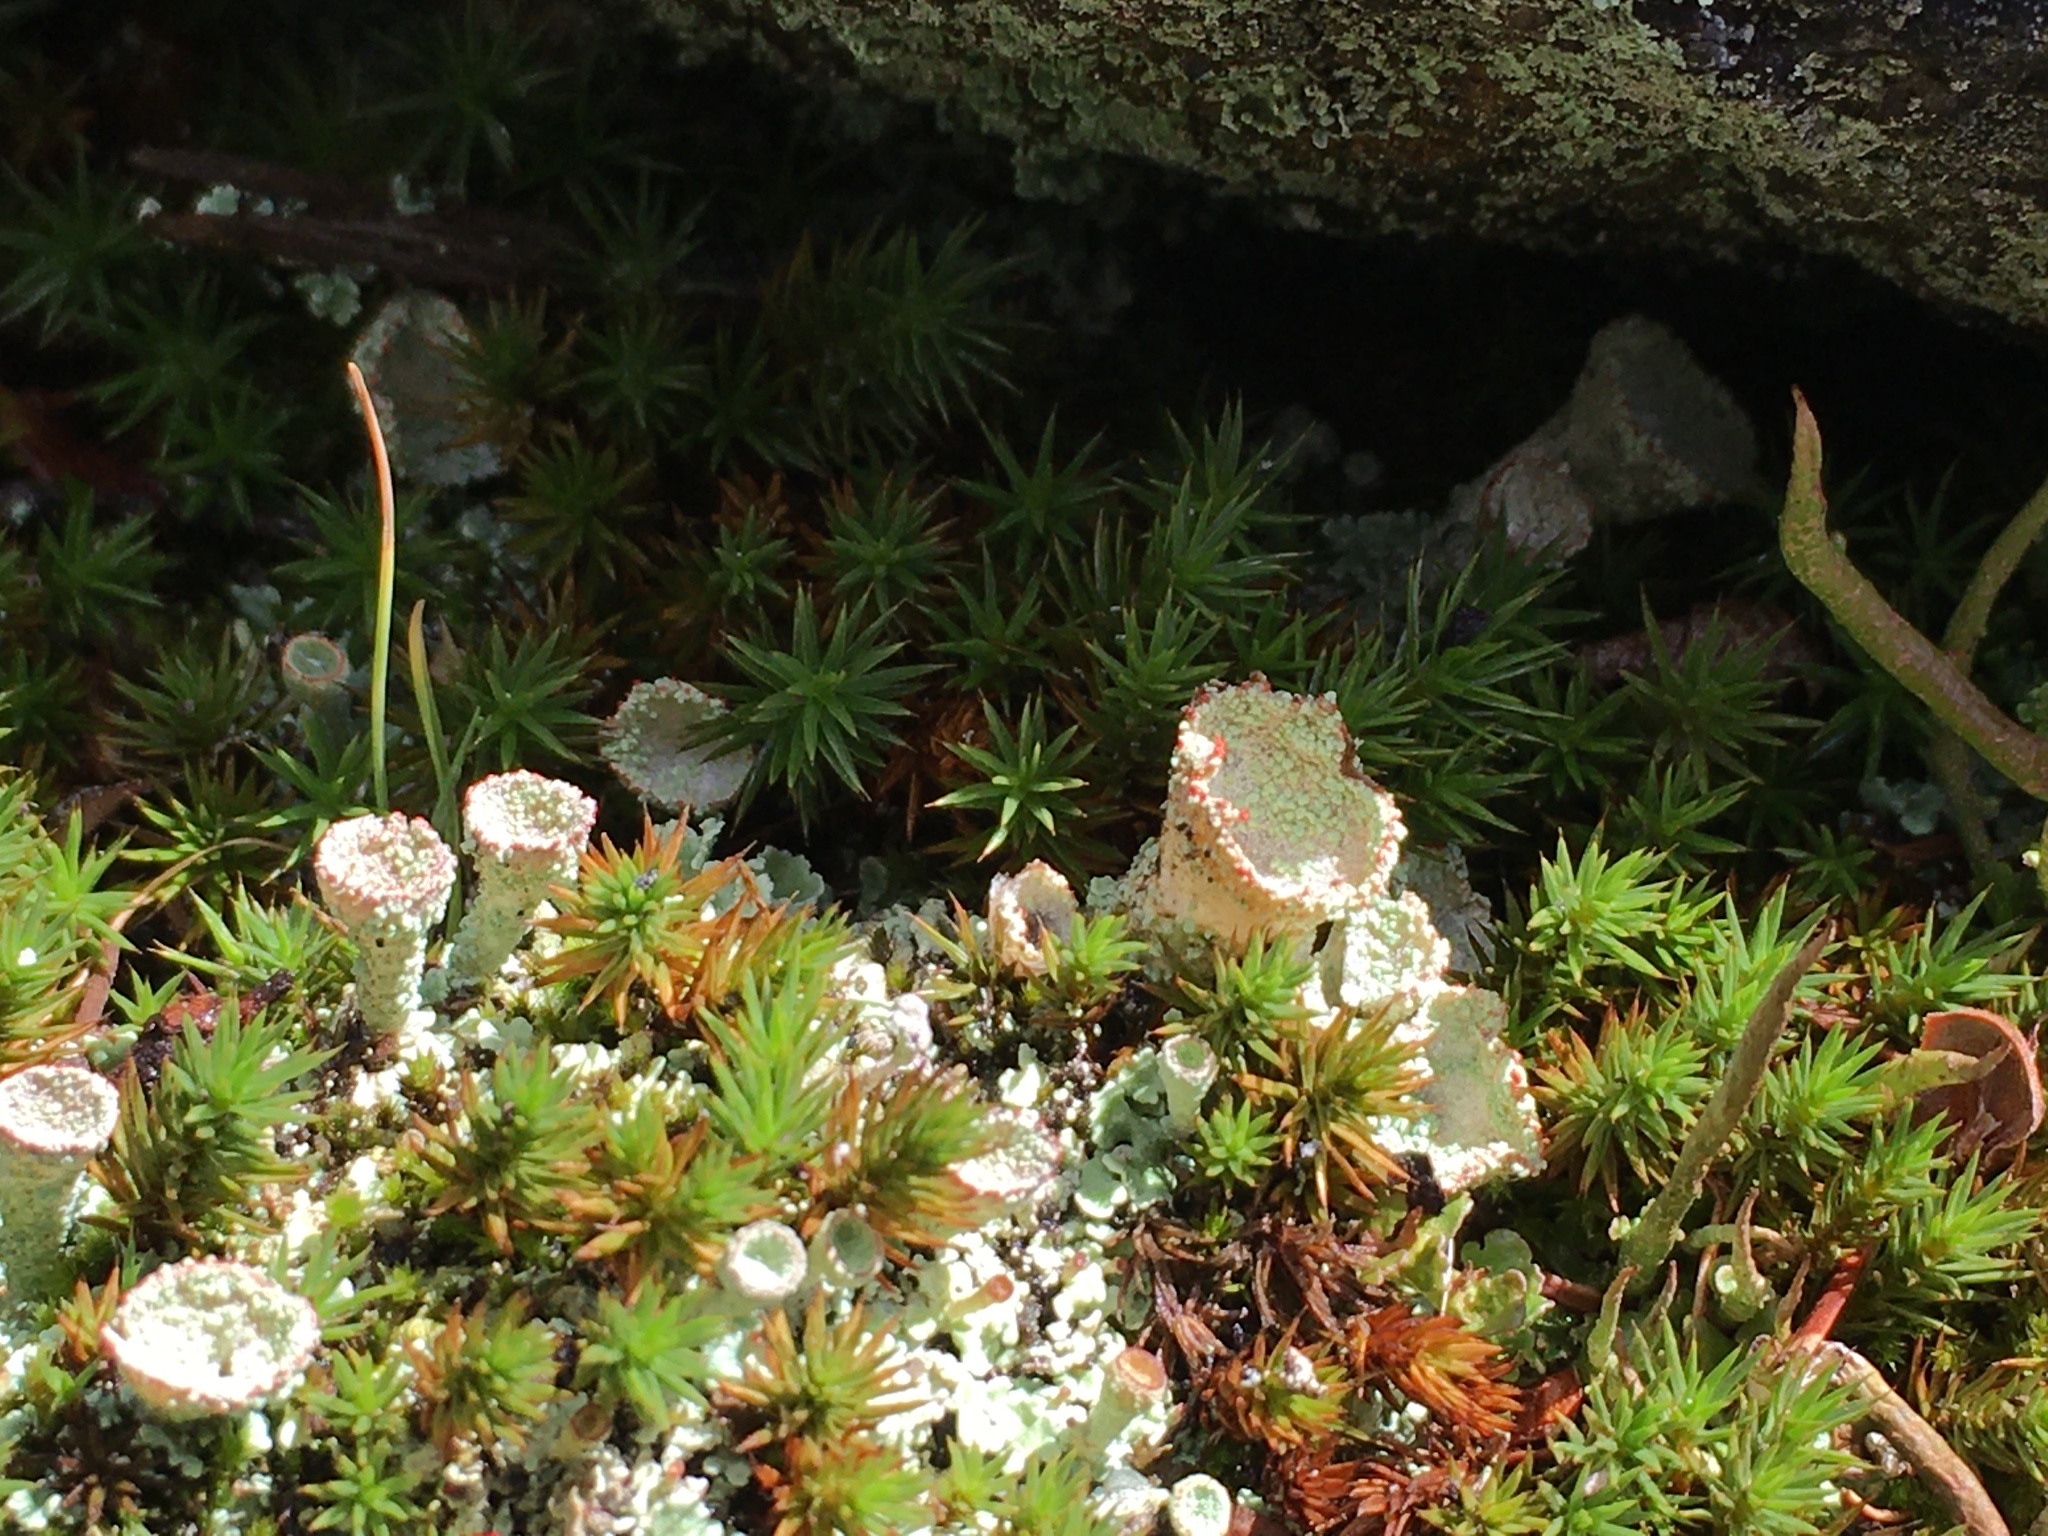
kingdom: Fungi
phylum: Ascomycota
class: Lecanoromycetes
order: Lecanorales
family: Cladoniaceae
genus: Cladonia
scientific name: Cladonia chlorophaea
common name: Mealy pixie cup
